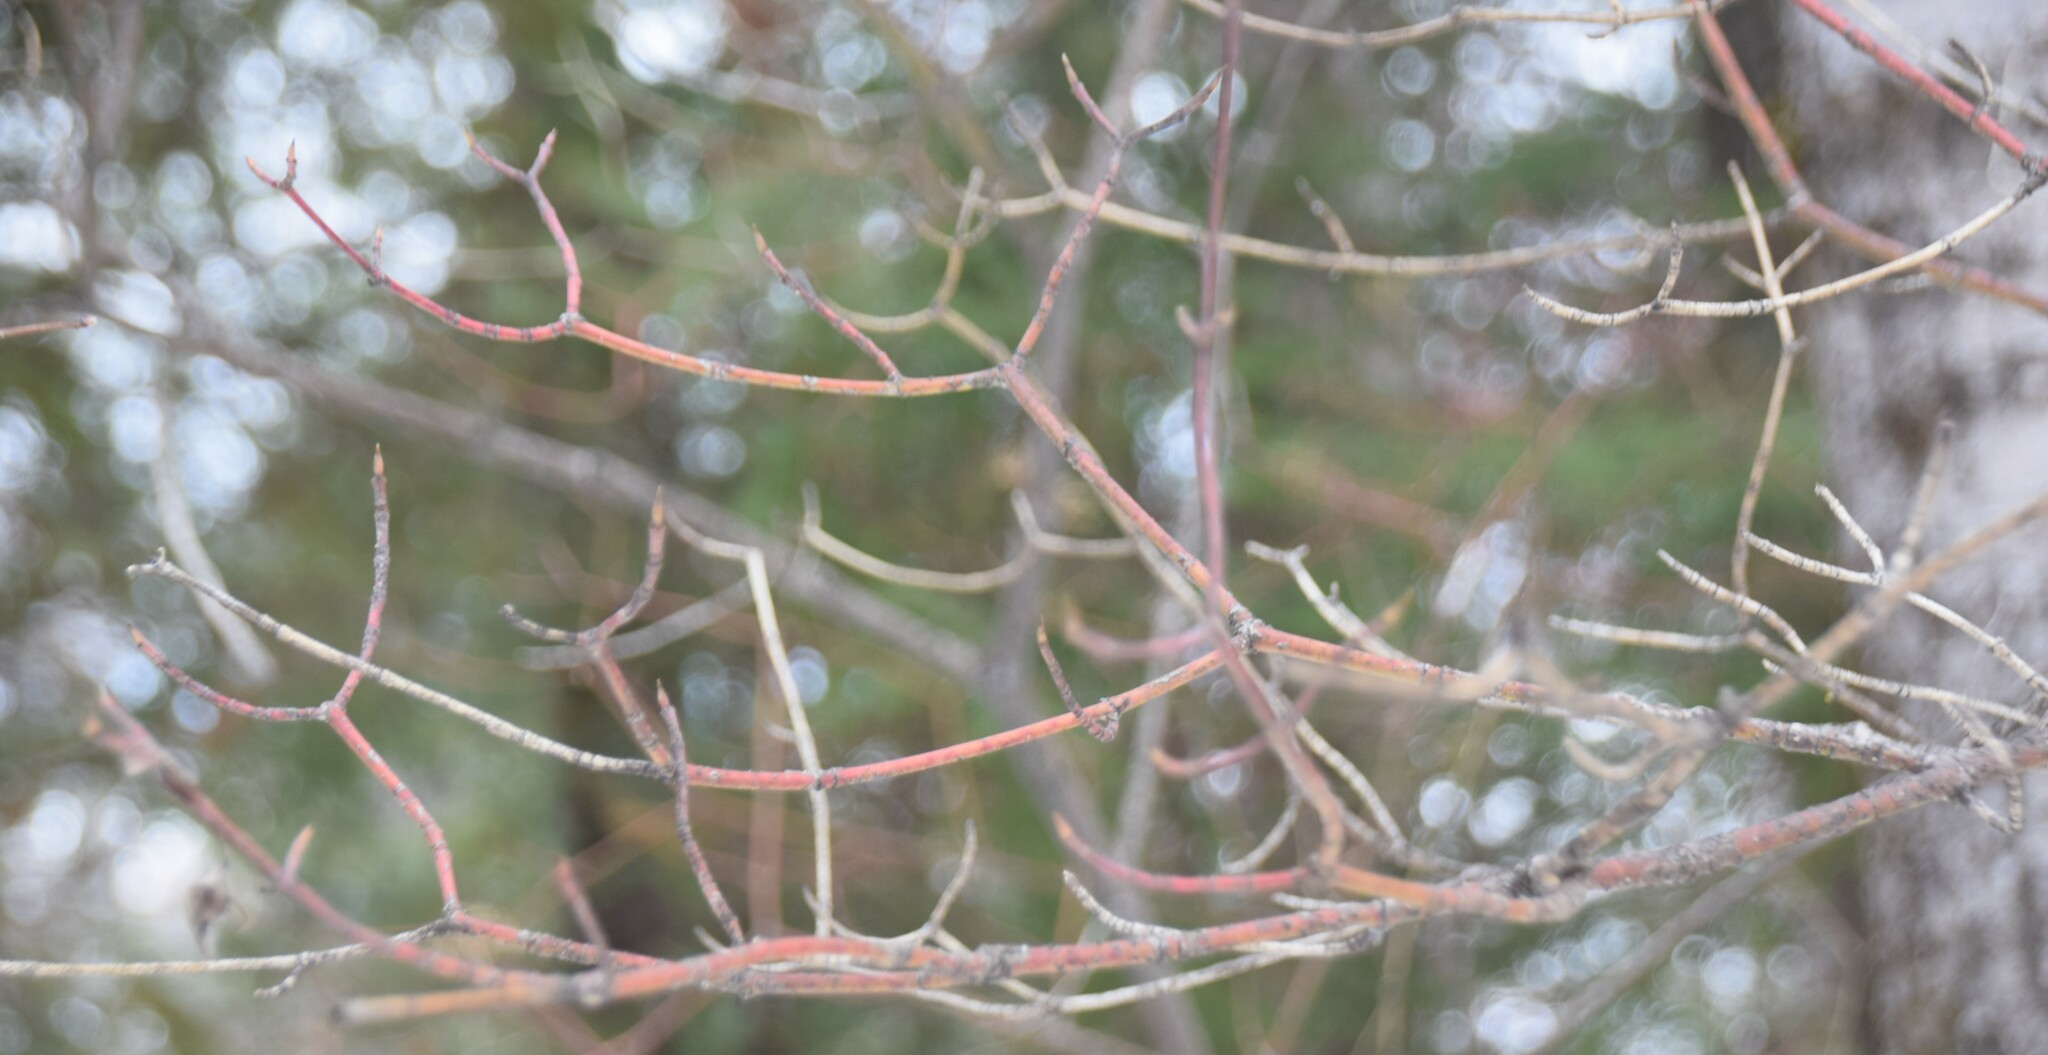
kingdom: Plantae
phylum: Tracheophyta
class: Magnoliopsida
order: Cornales
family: Cornaceae
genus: Cornus
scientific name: Cornus alternifolia
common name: Pagoda dogwood
